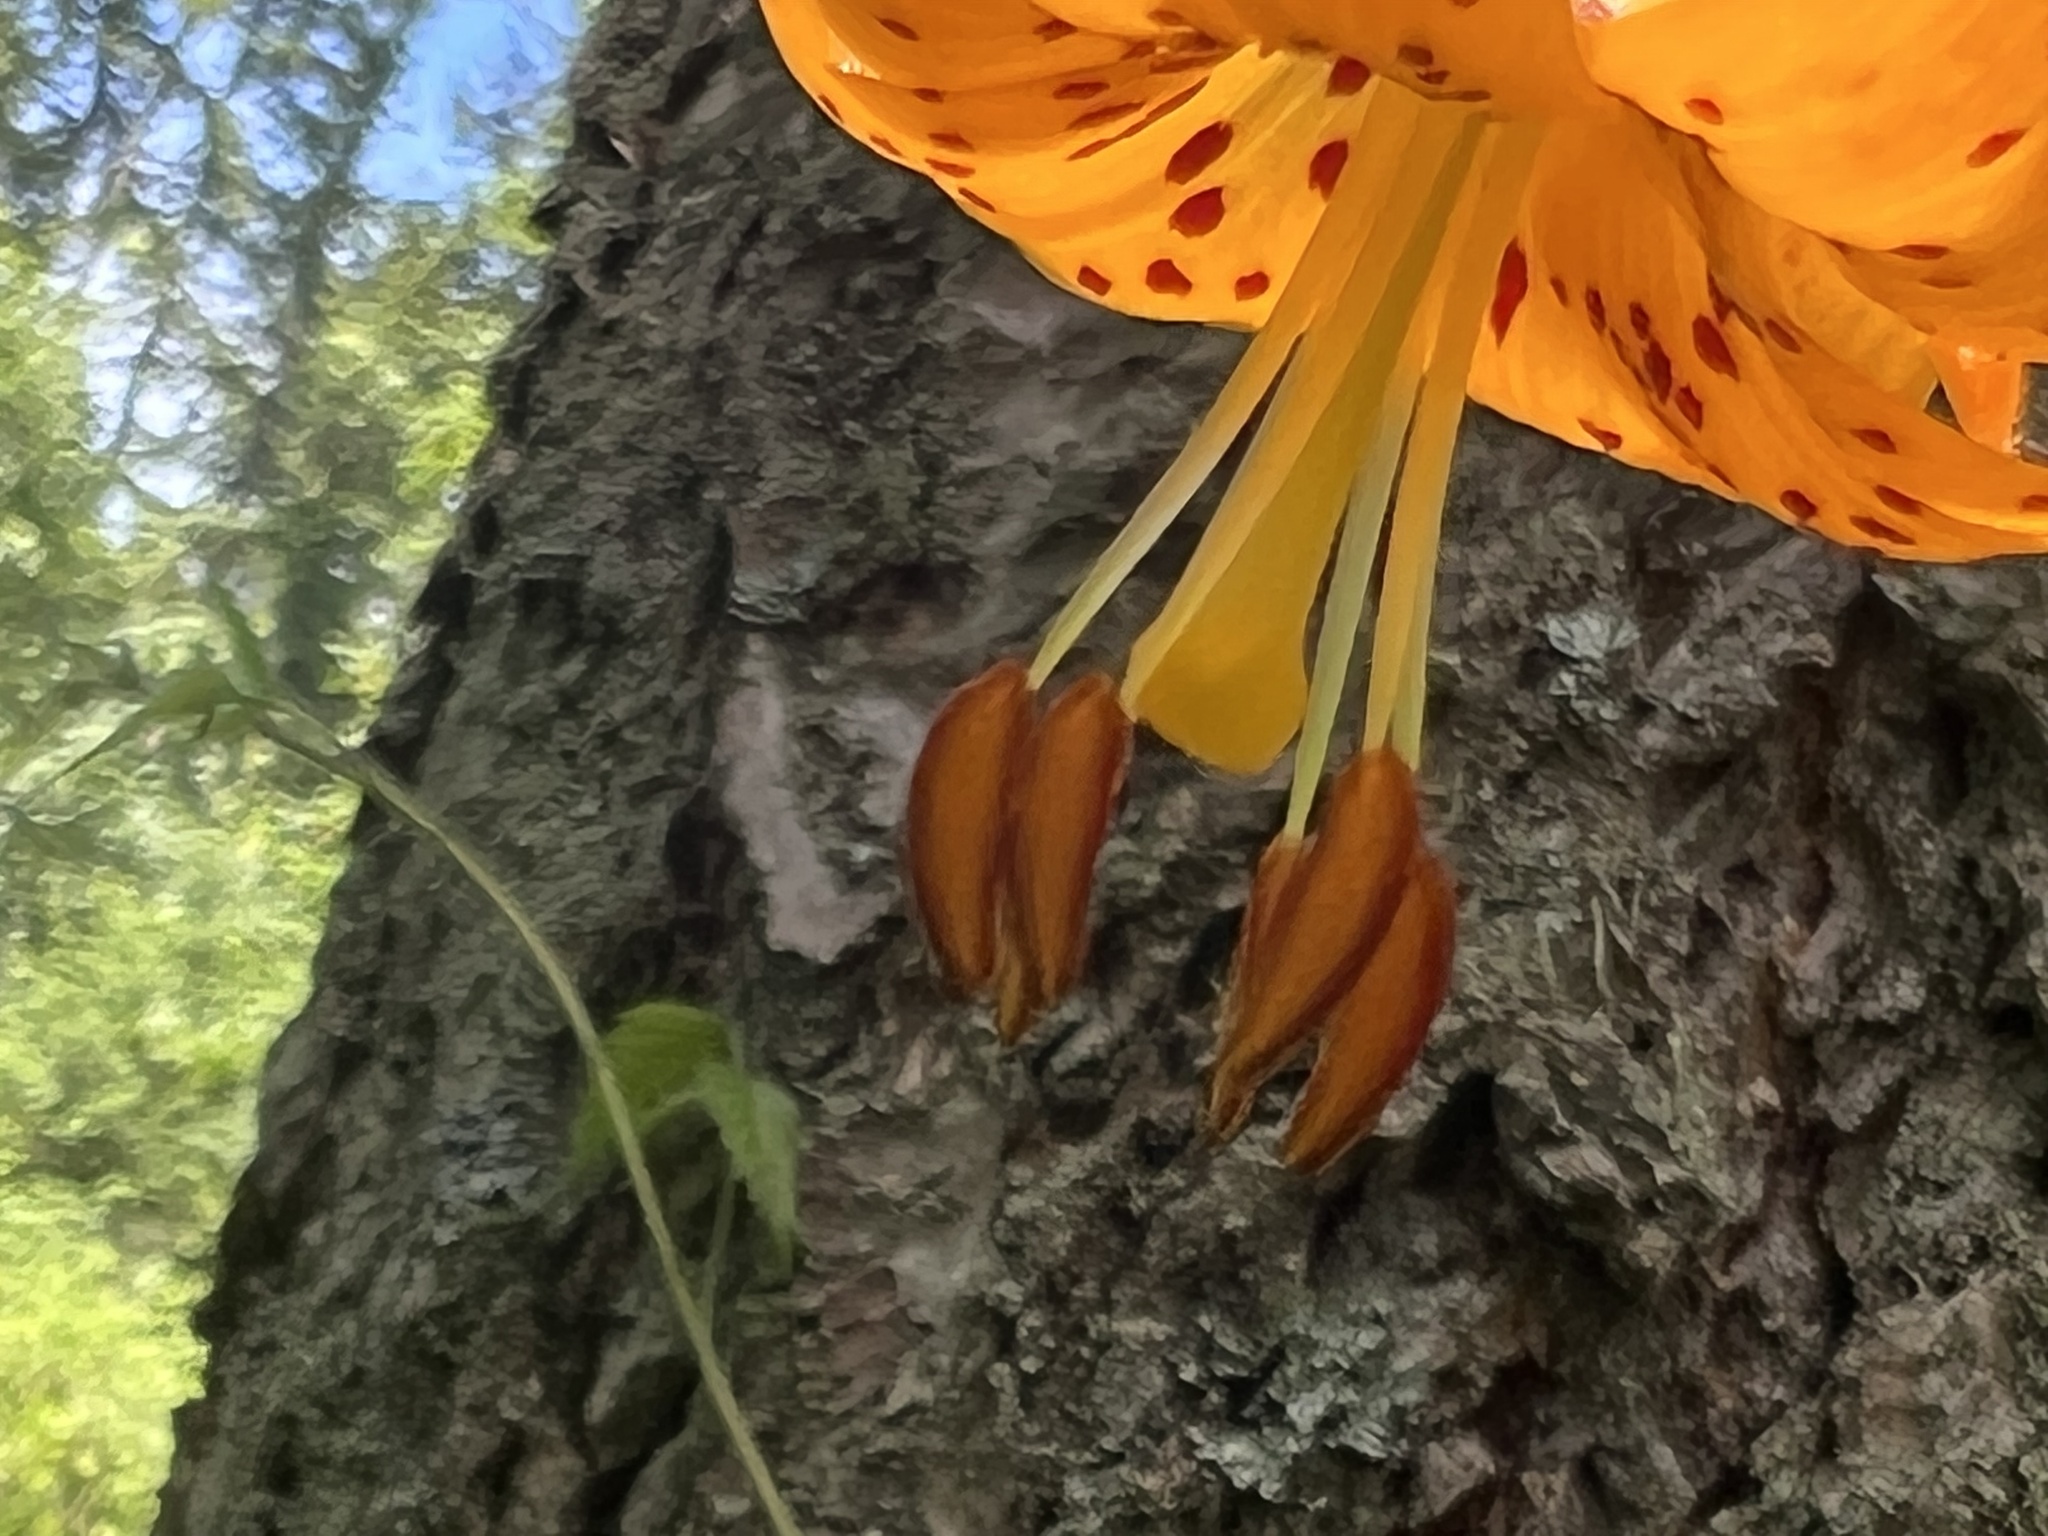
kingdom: Plantae
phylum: Tracheophyta
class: Liliopsida
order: Liliales
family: Liliaceae
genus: Lilium
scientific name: Lilium columbianum
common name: Columbia lily
